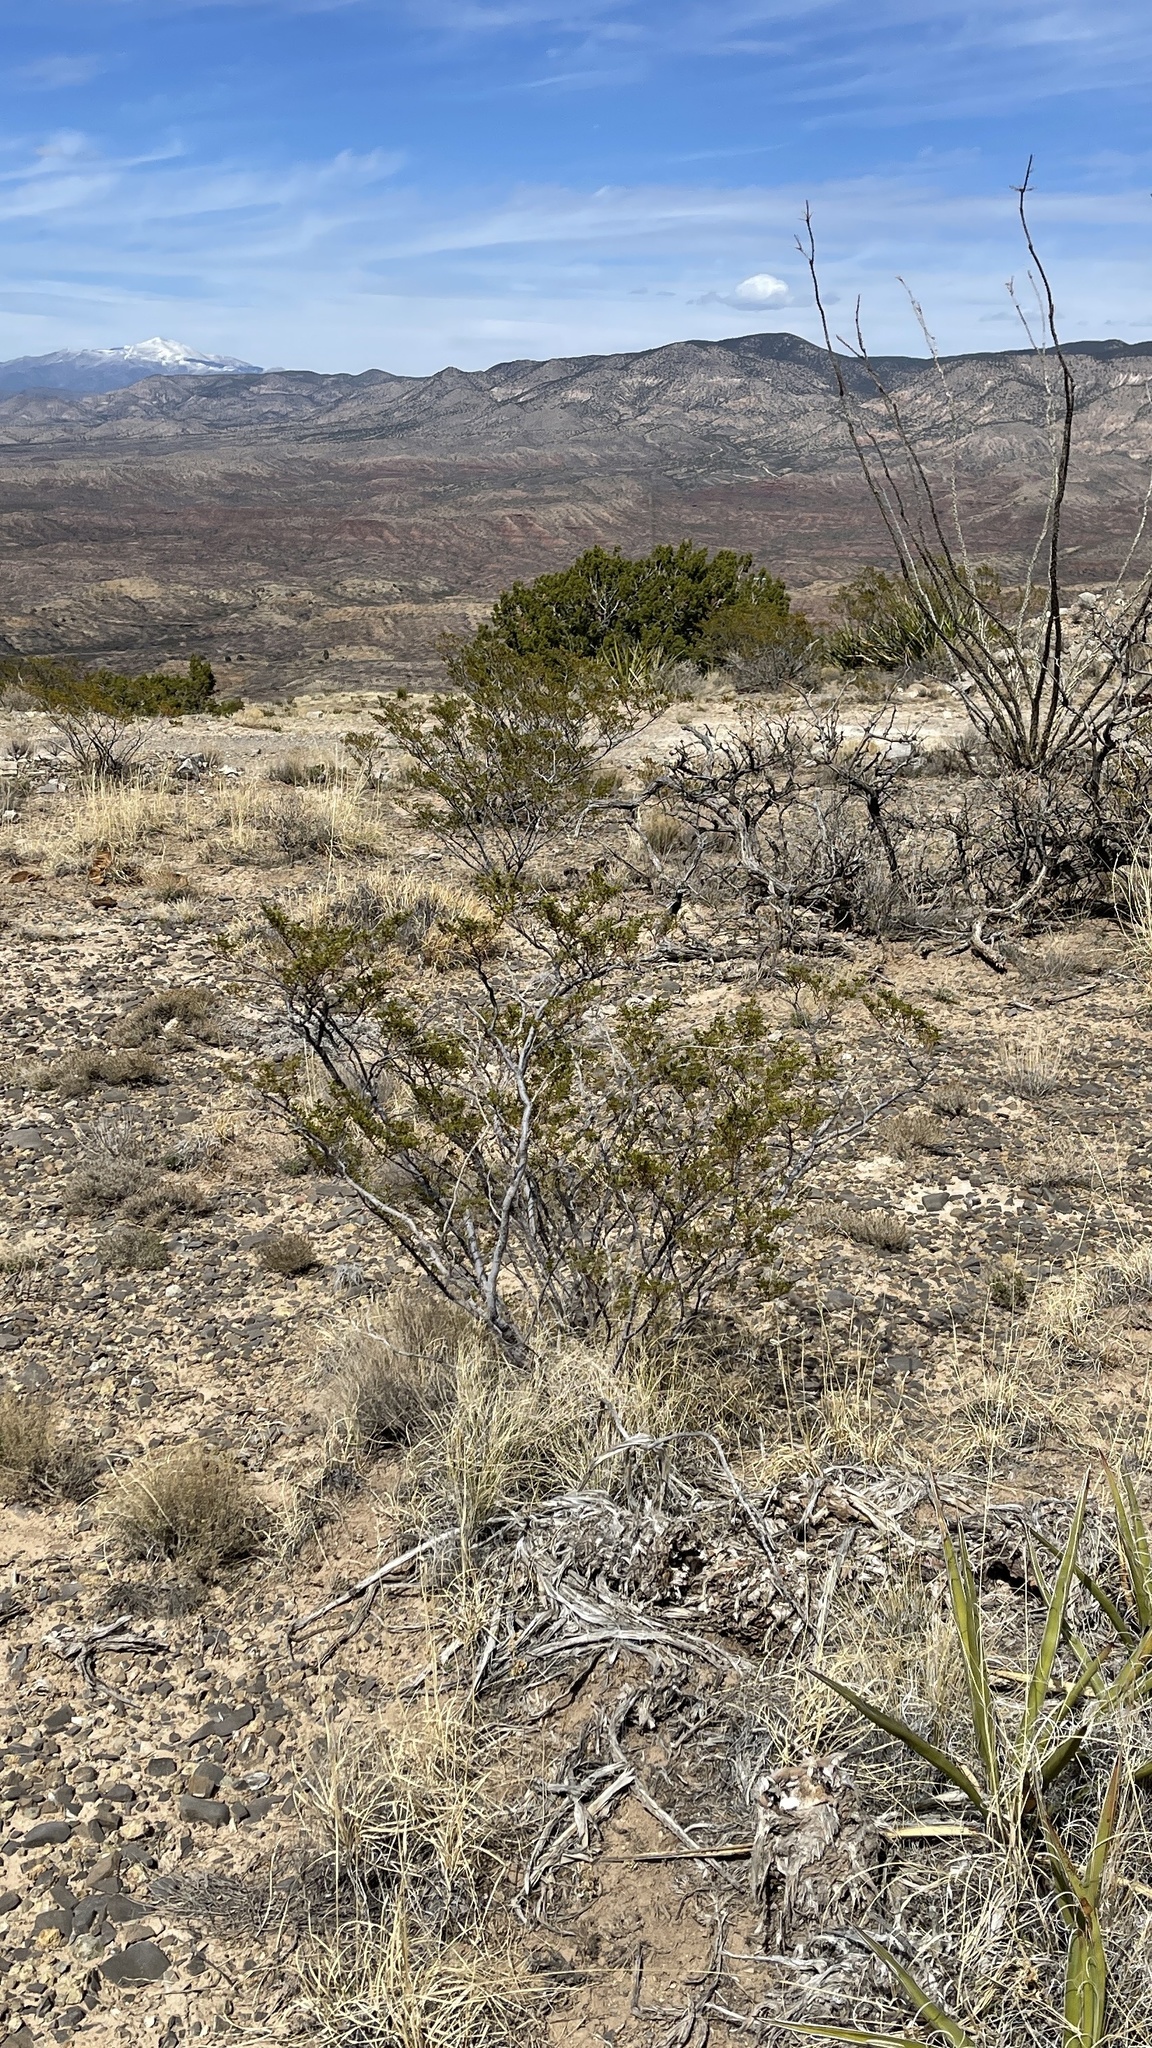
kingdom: Plantae
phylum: Tracheophyta
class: Magnoliopsida
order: Zygophyllales
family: Zygophyllaceae
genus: Larrea
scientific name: Larrea tridentata
